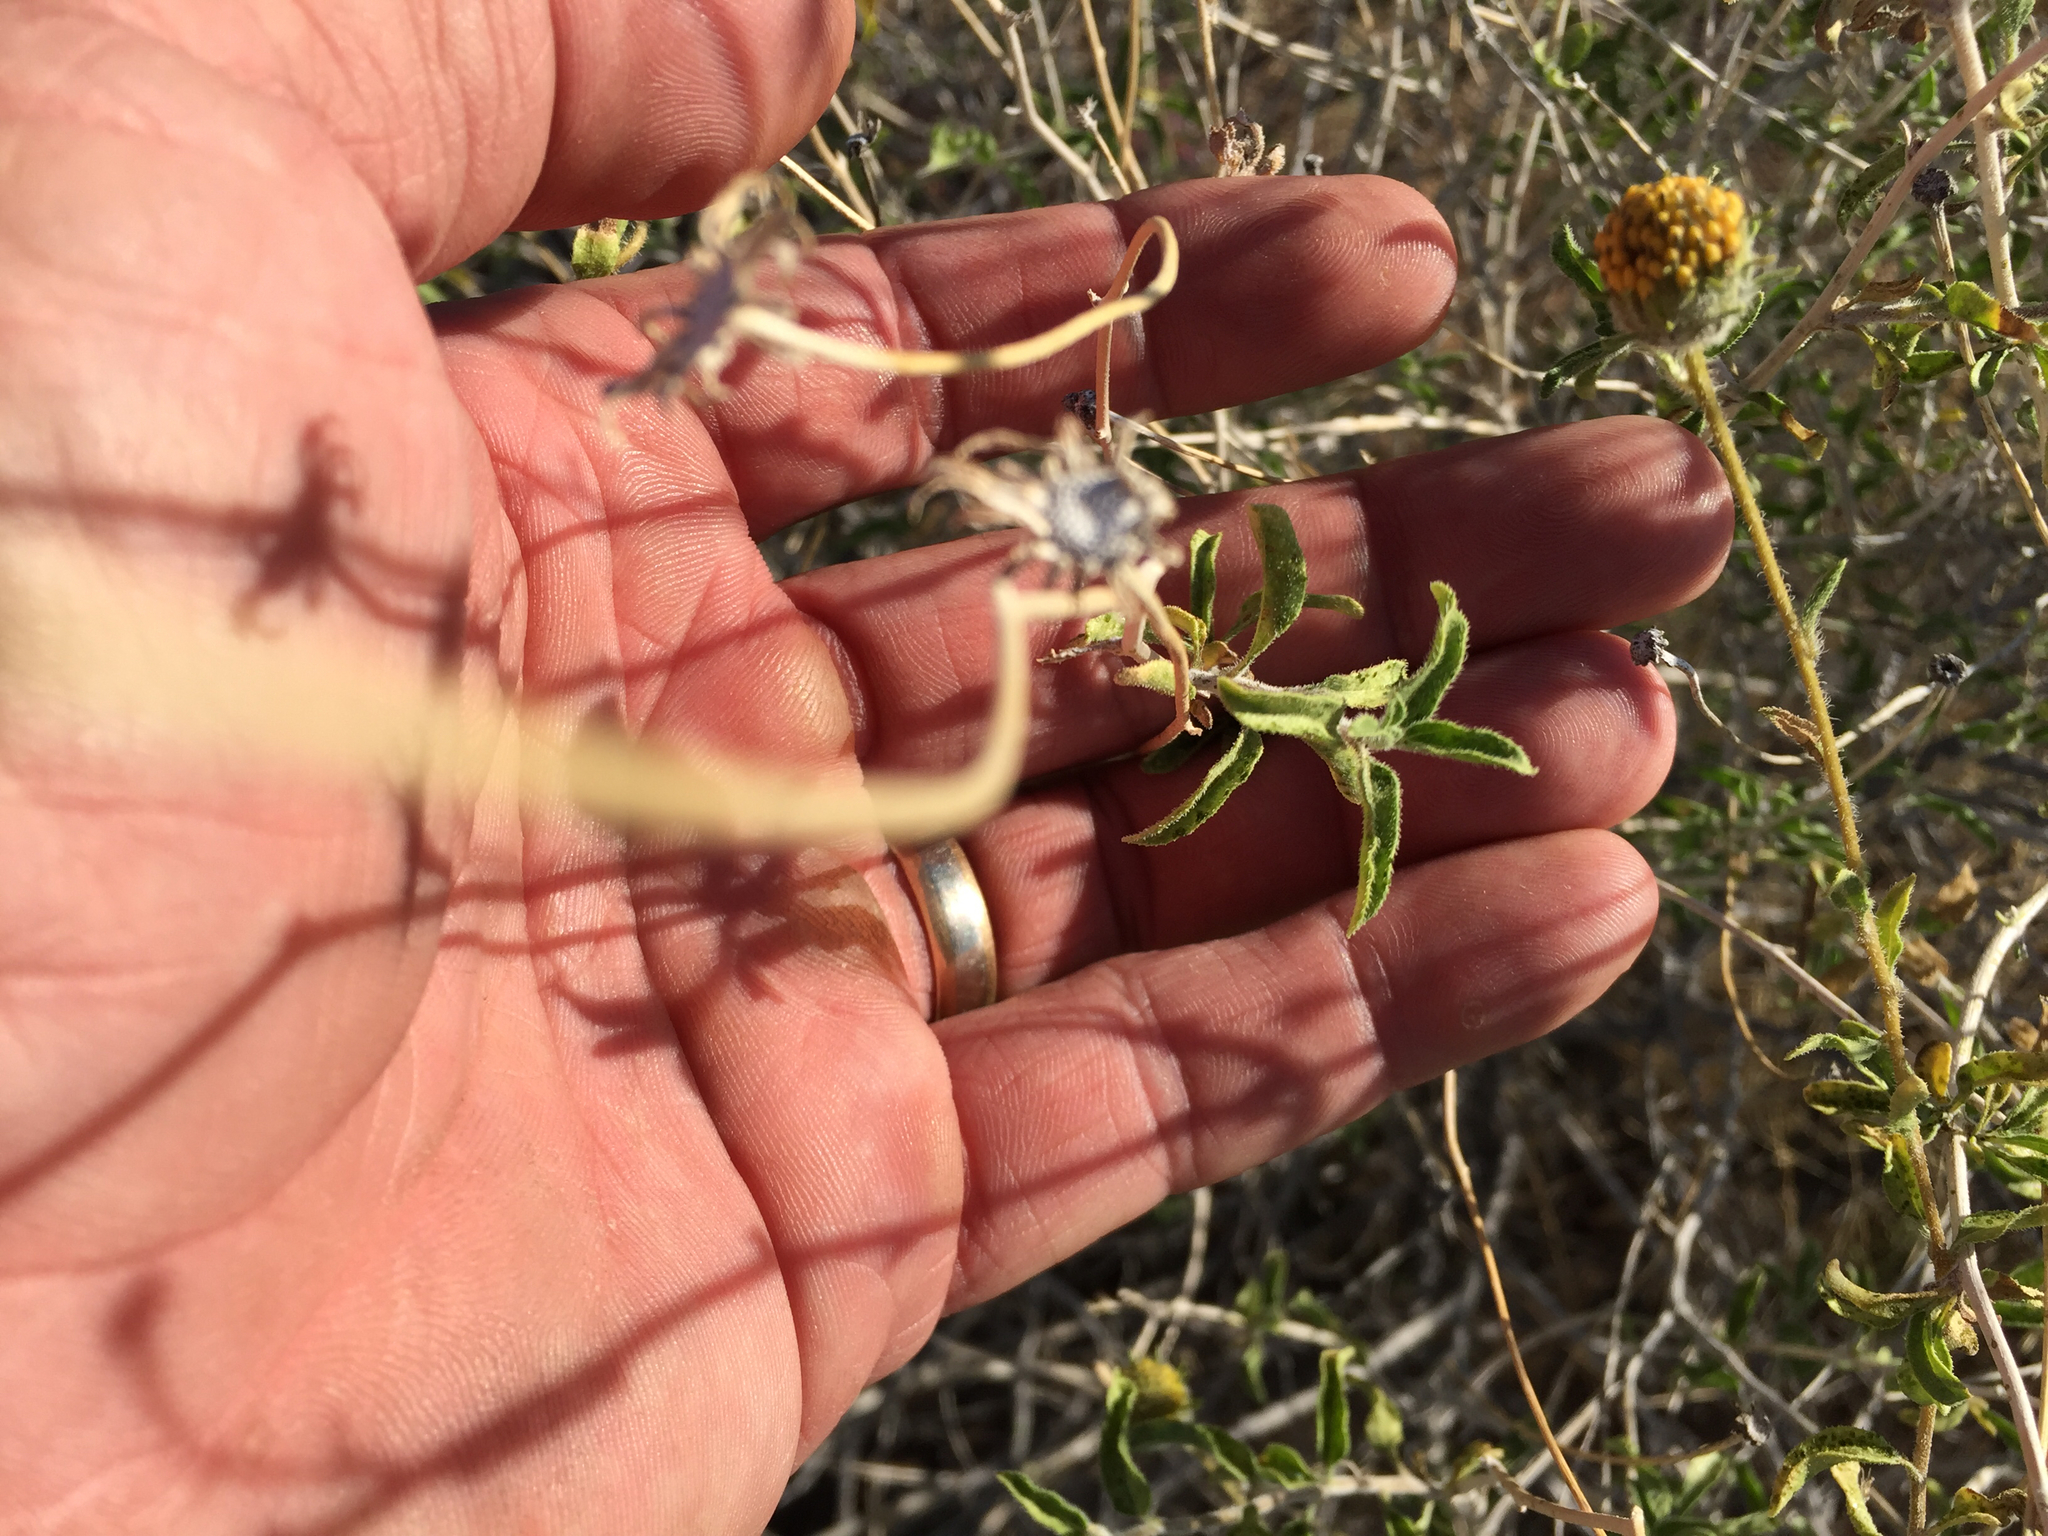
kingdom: Plantae
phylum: Tracheophyta
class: Magnoliopsida
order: Asterales
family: Asteraceae
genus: Encelia
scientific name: Encelia frutescens
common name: Bush encelia
